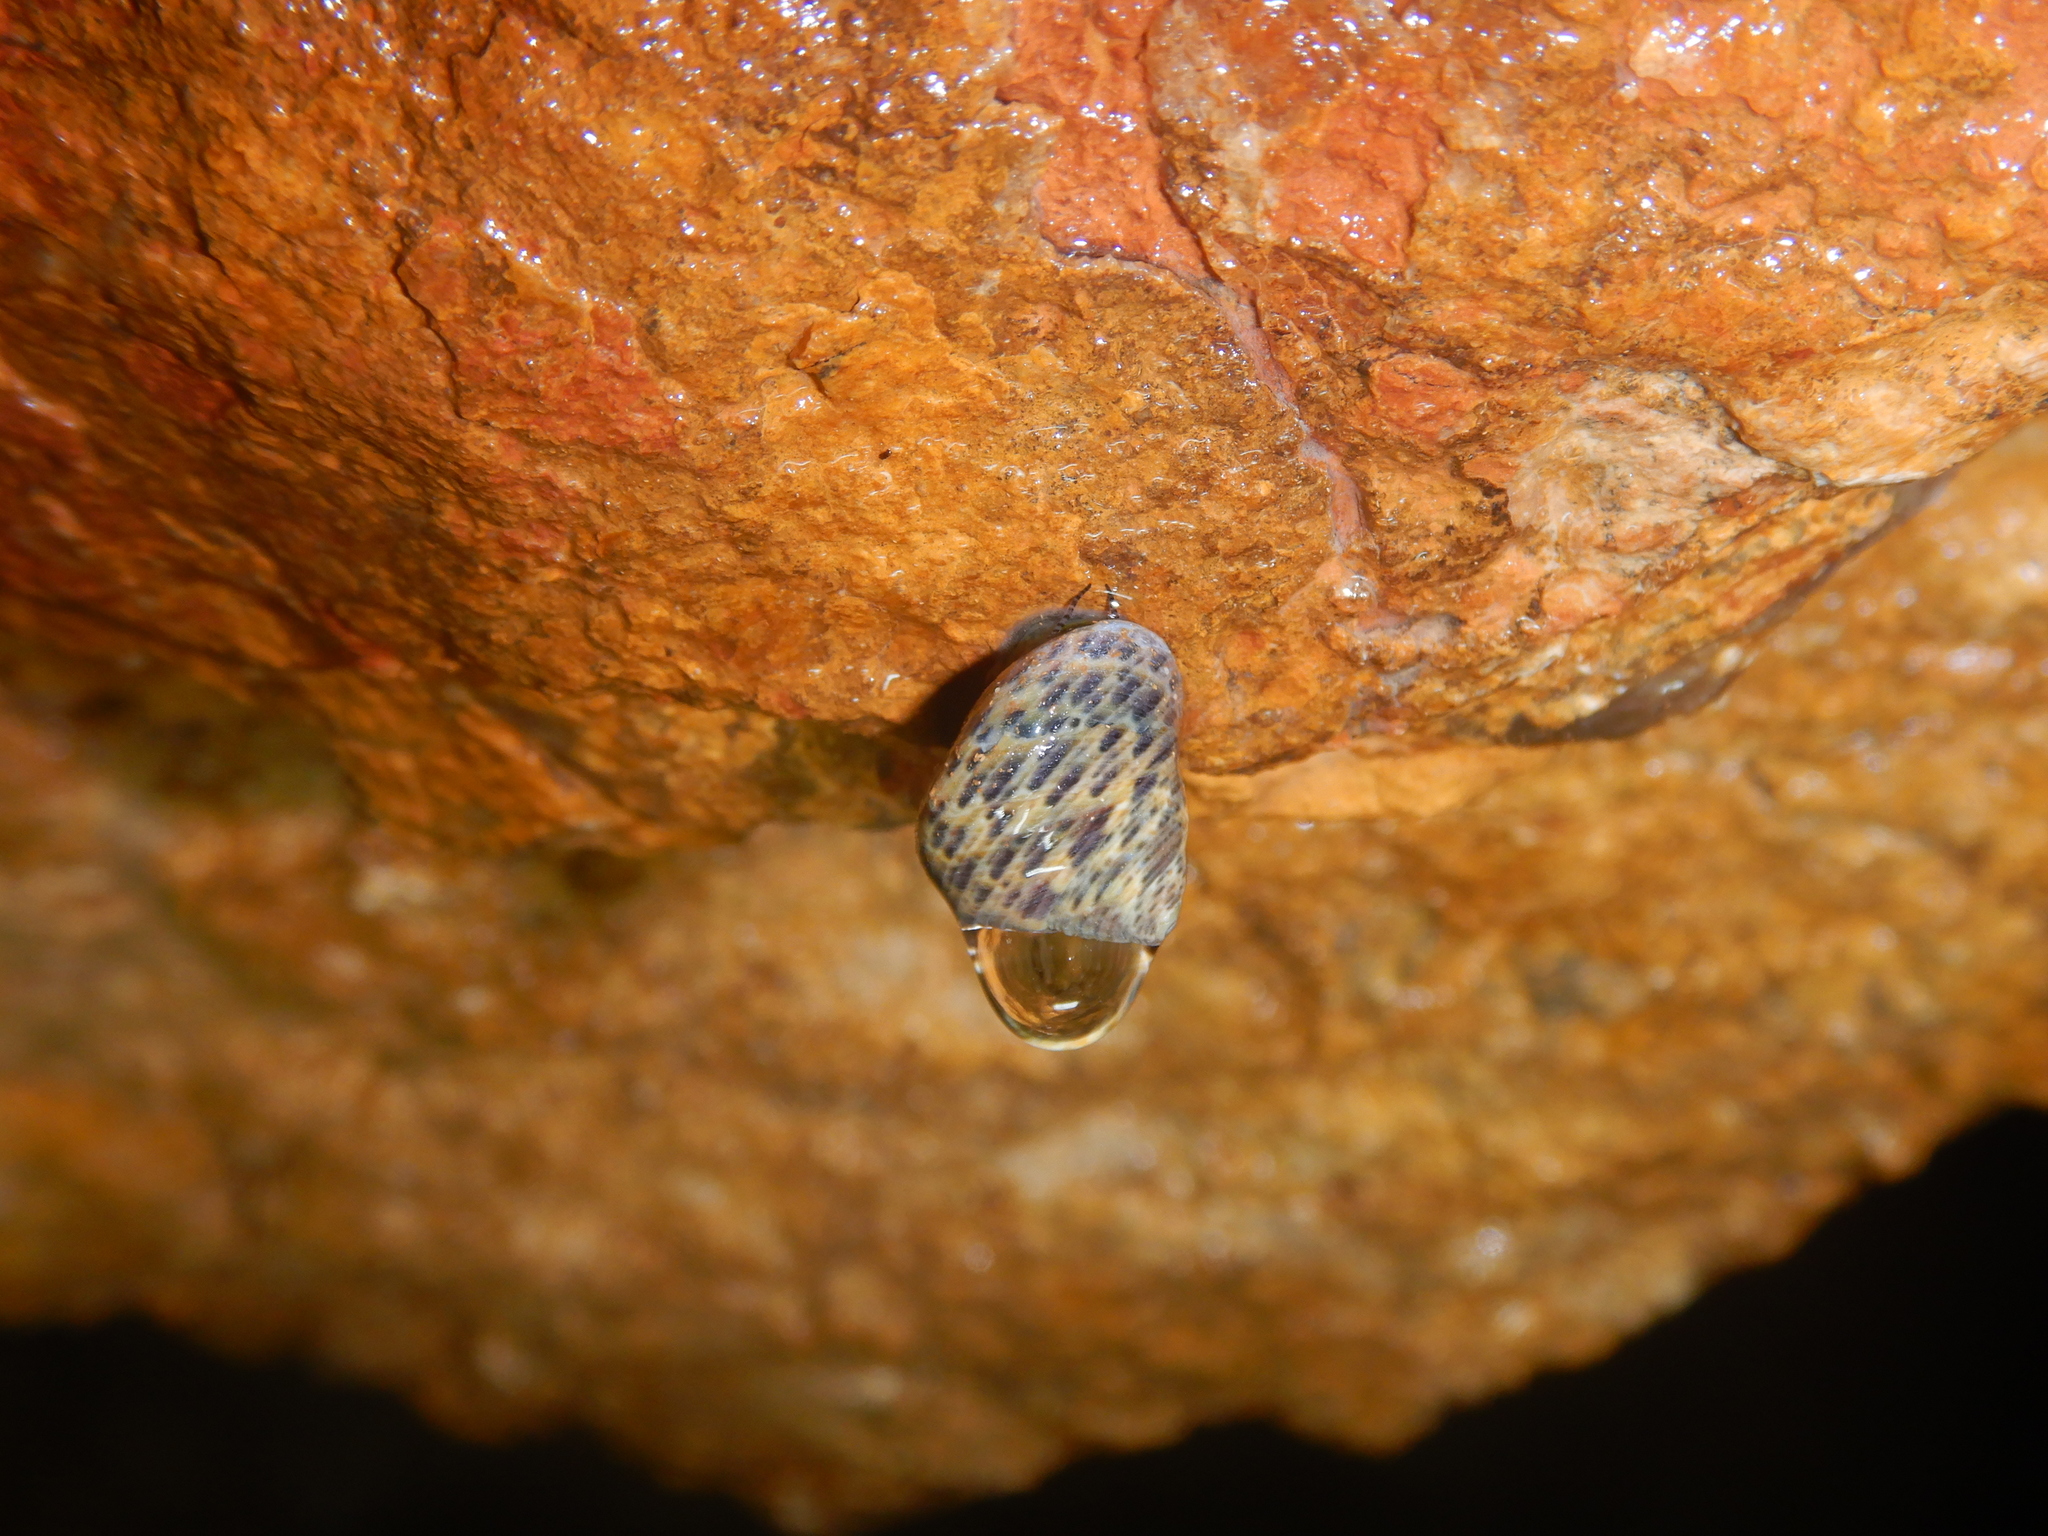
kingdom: Animalia
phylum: Mollusca
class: Gastropoda
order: Trochida
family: Trochidae
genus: Phorcus
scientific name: Phorcus turbinatus
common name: Turbinate monodont
